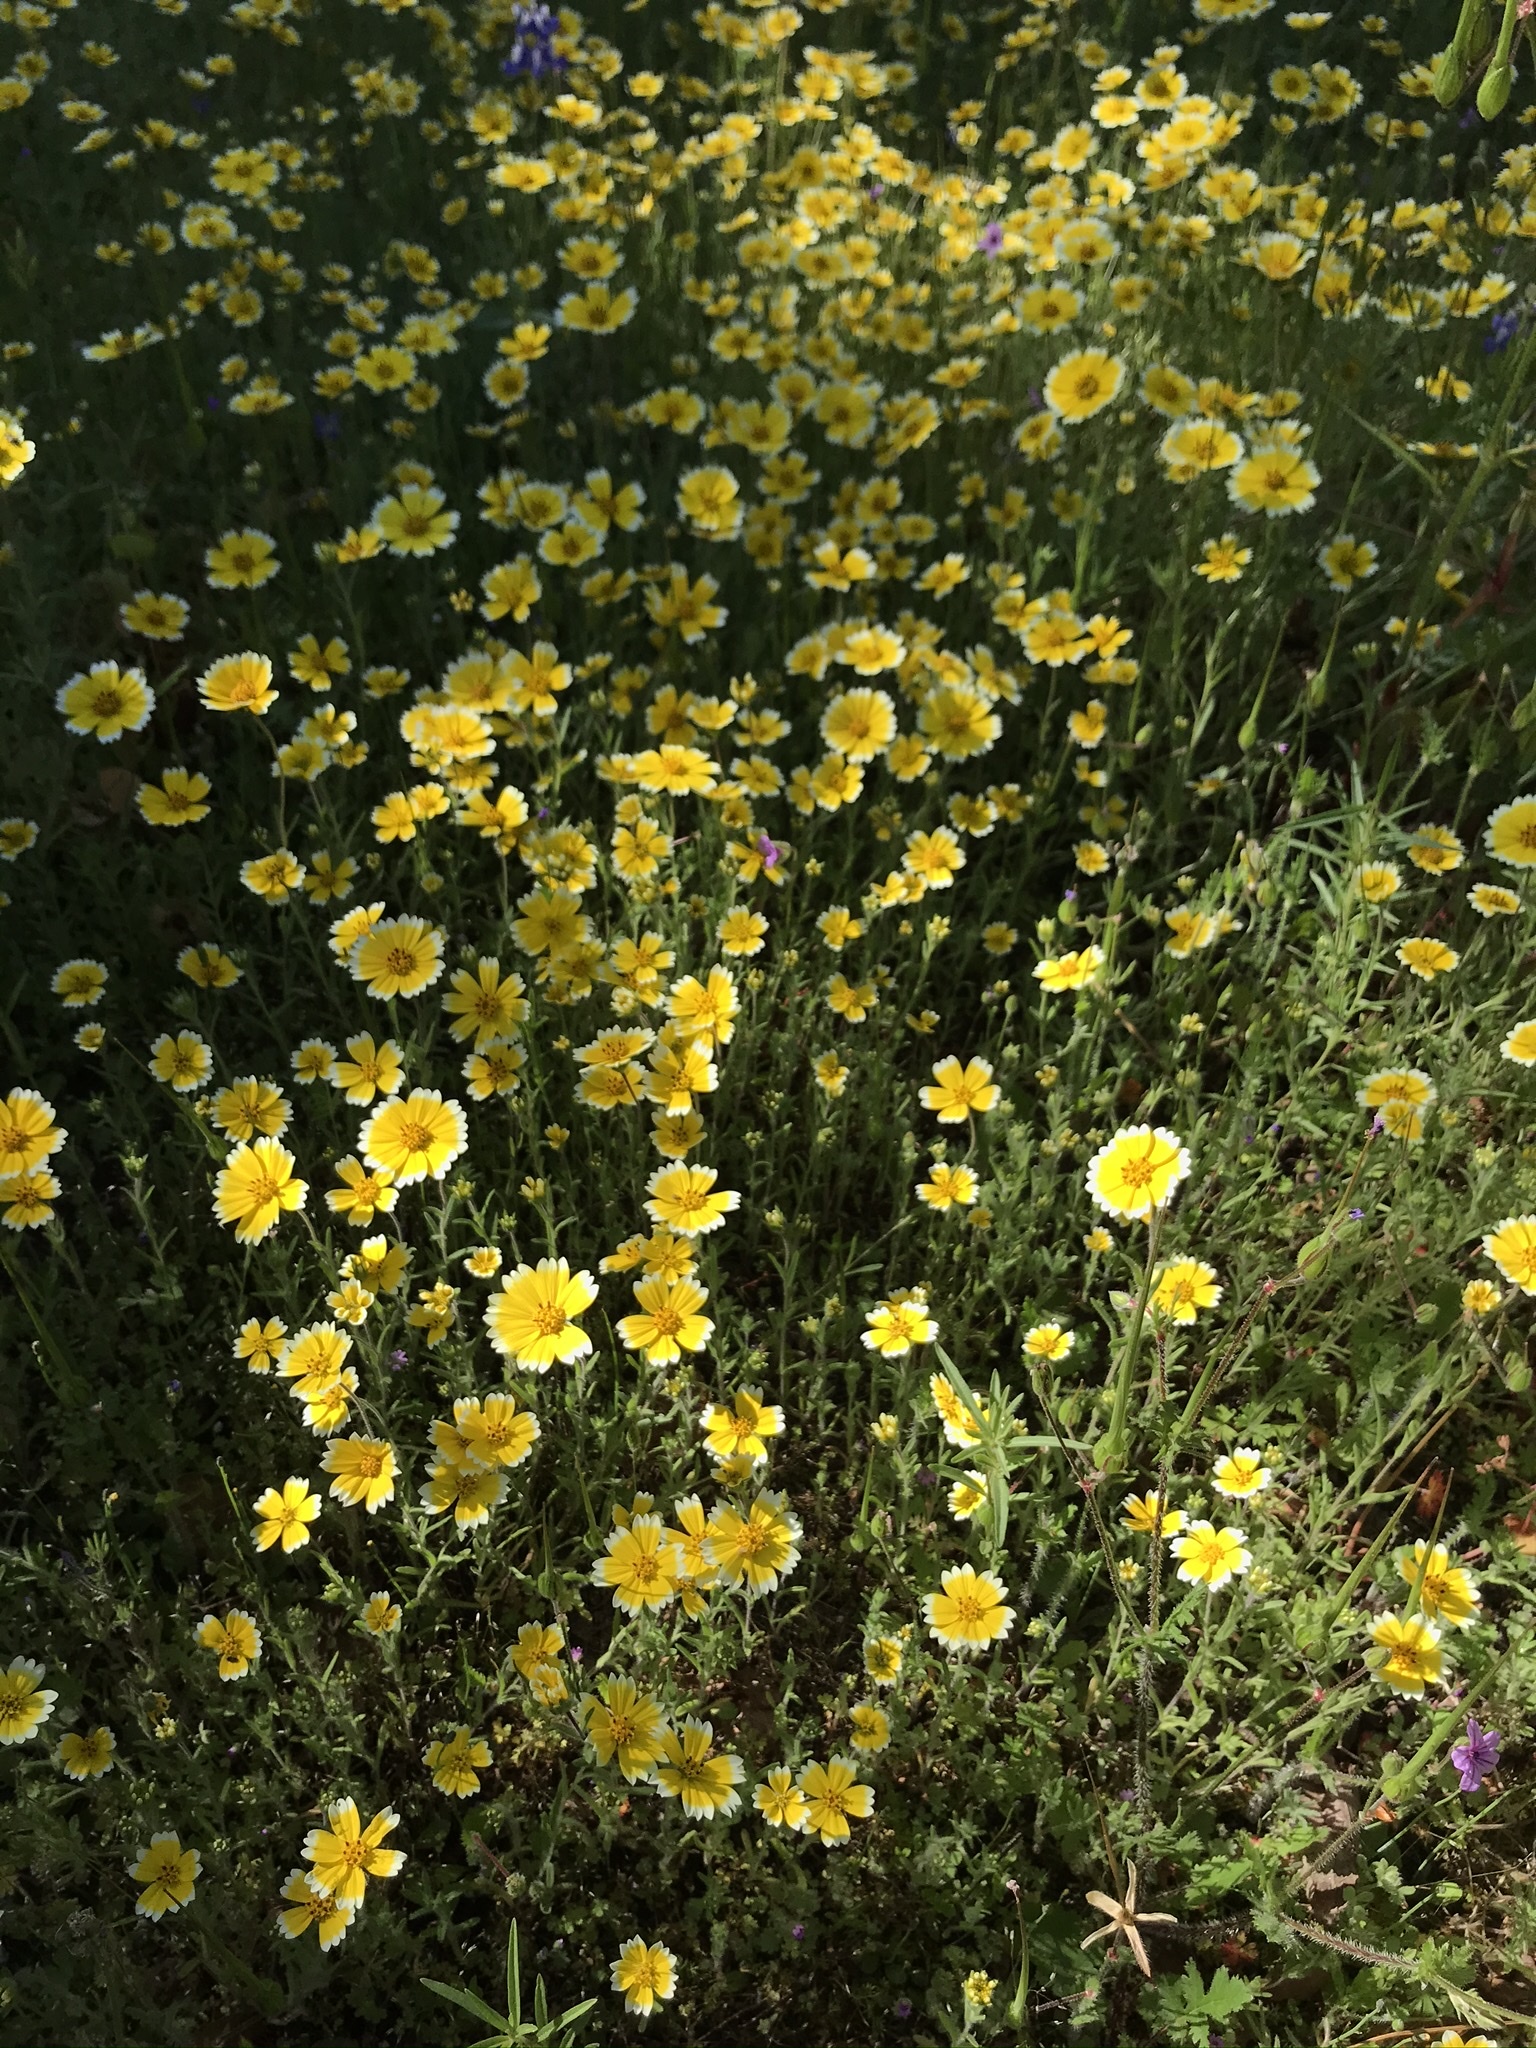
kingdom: Plantae
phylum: Tracheophyta
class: Magnoliopsida
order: Asterales
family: Asteraceae
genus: Layia
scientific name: Layia platyglossa
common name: Tidy-tips
